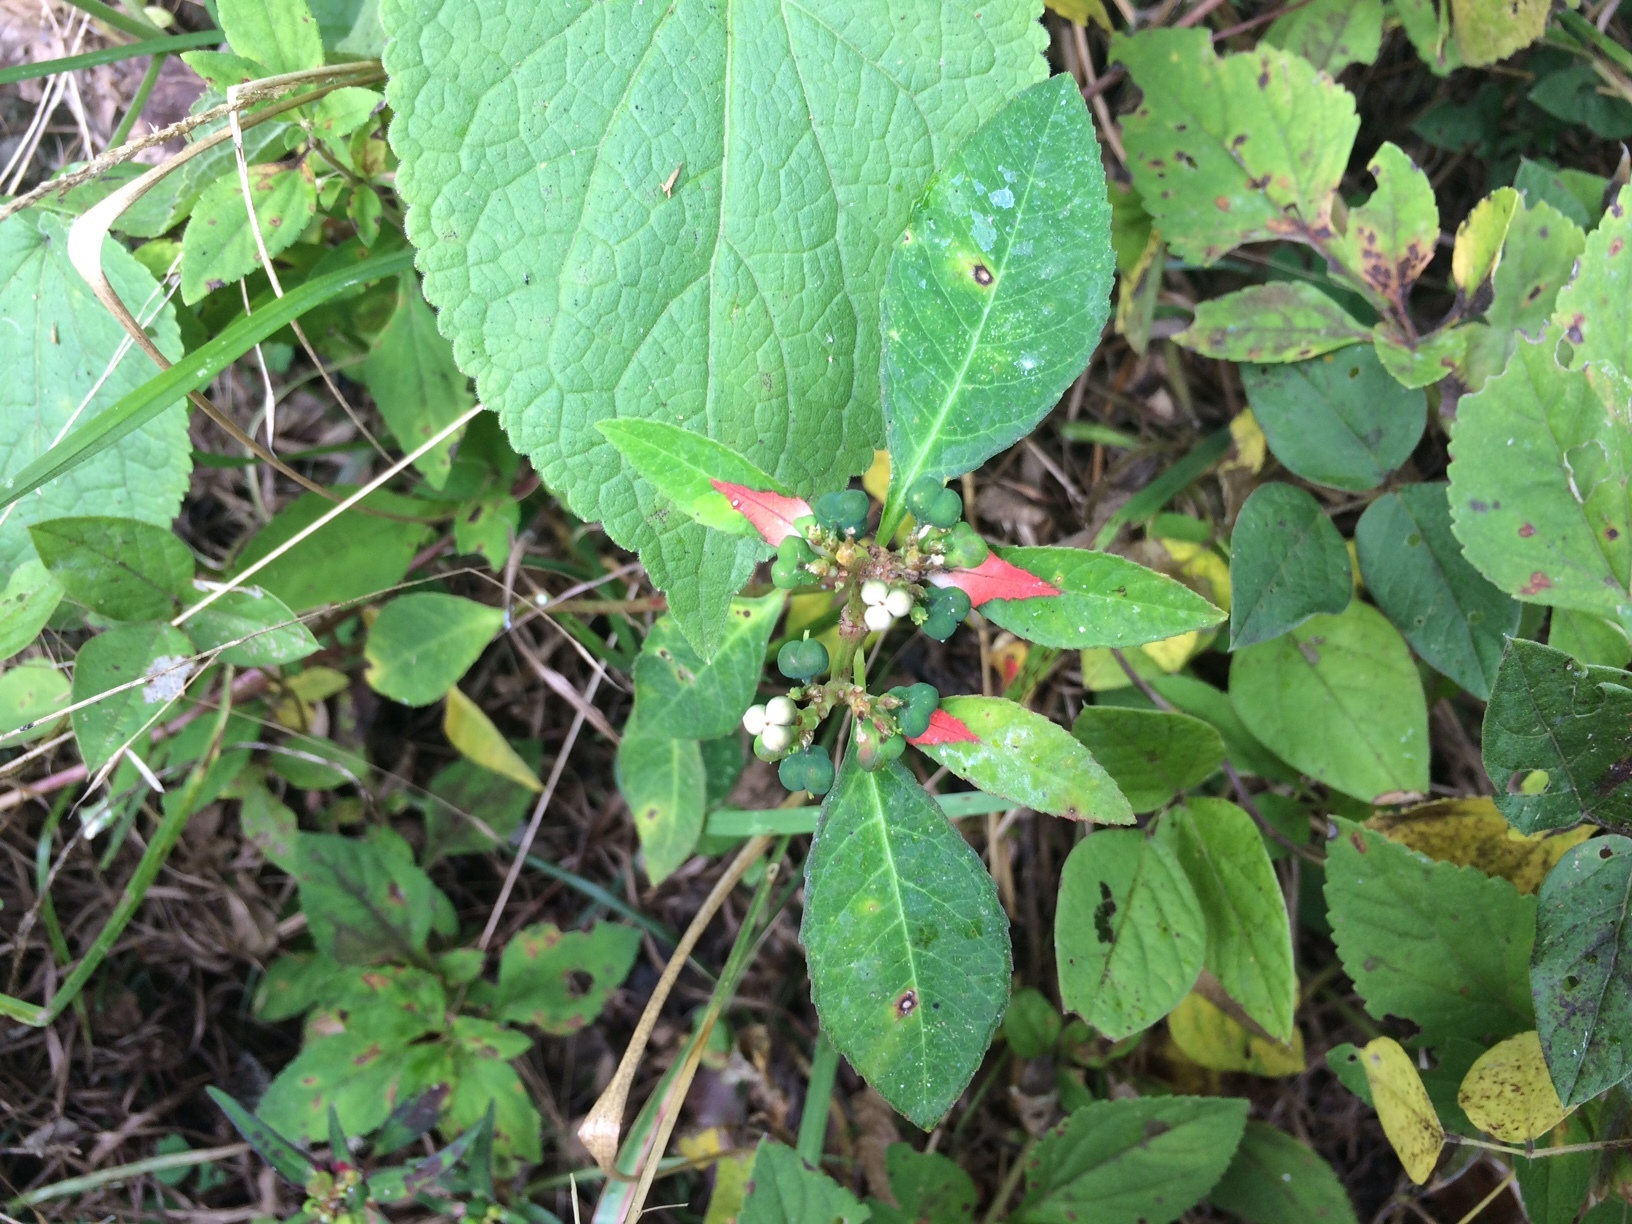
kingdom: Plantae
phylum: Tracheophyta
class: Magnoliopsida
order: Malpighiales
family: Euphorbiaceae
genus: Euphorbia
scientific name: Euphorbia heterophylla
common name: Mexican fireplant
